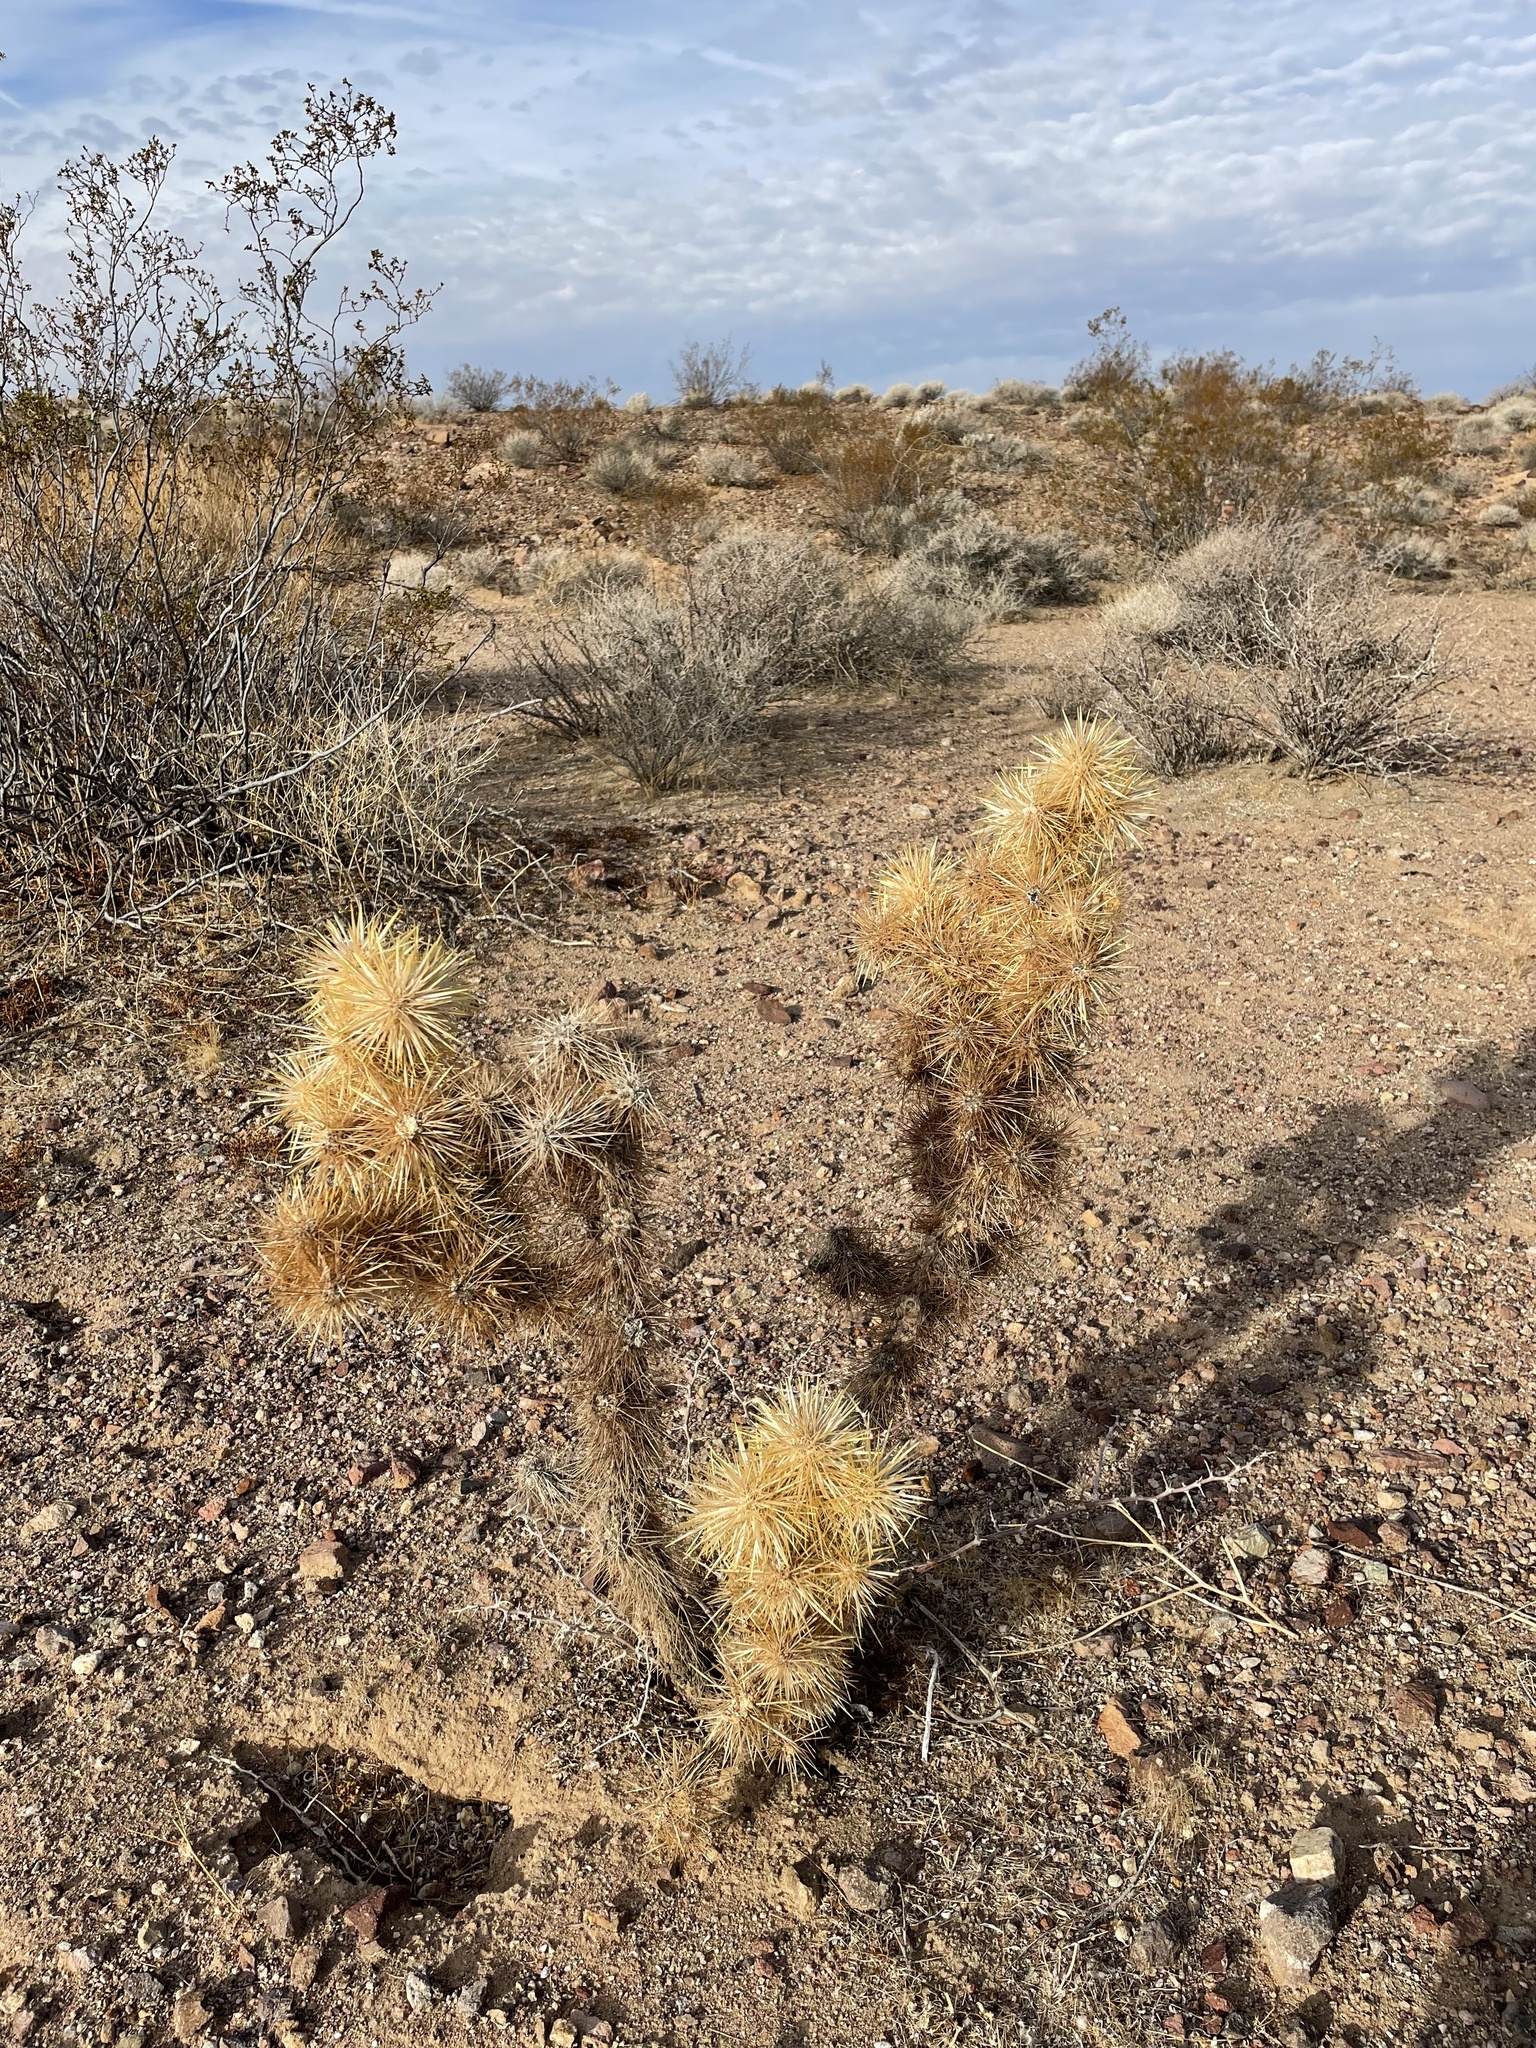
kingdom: Plantae
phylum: Tracheophyta
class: Magnoliopsida
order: Caryophyllales
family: Cactaceae
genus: Cylindropuntia
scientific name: Cylindropuntia echinocarpa
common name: Ground cholla
